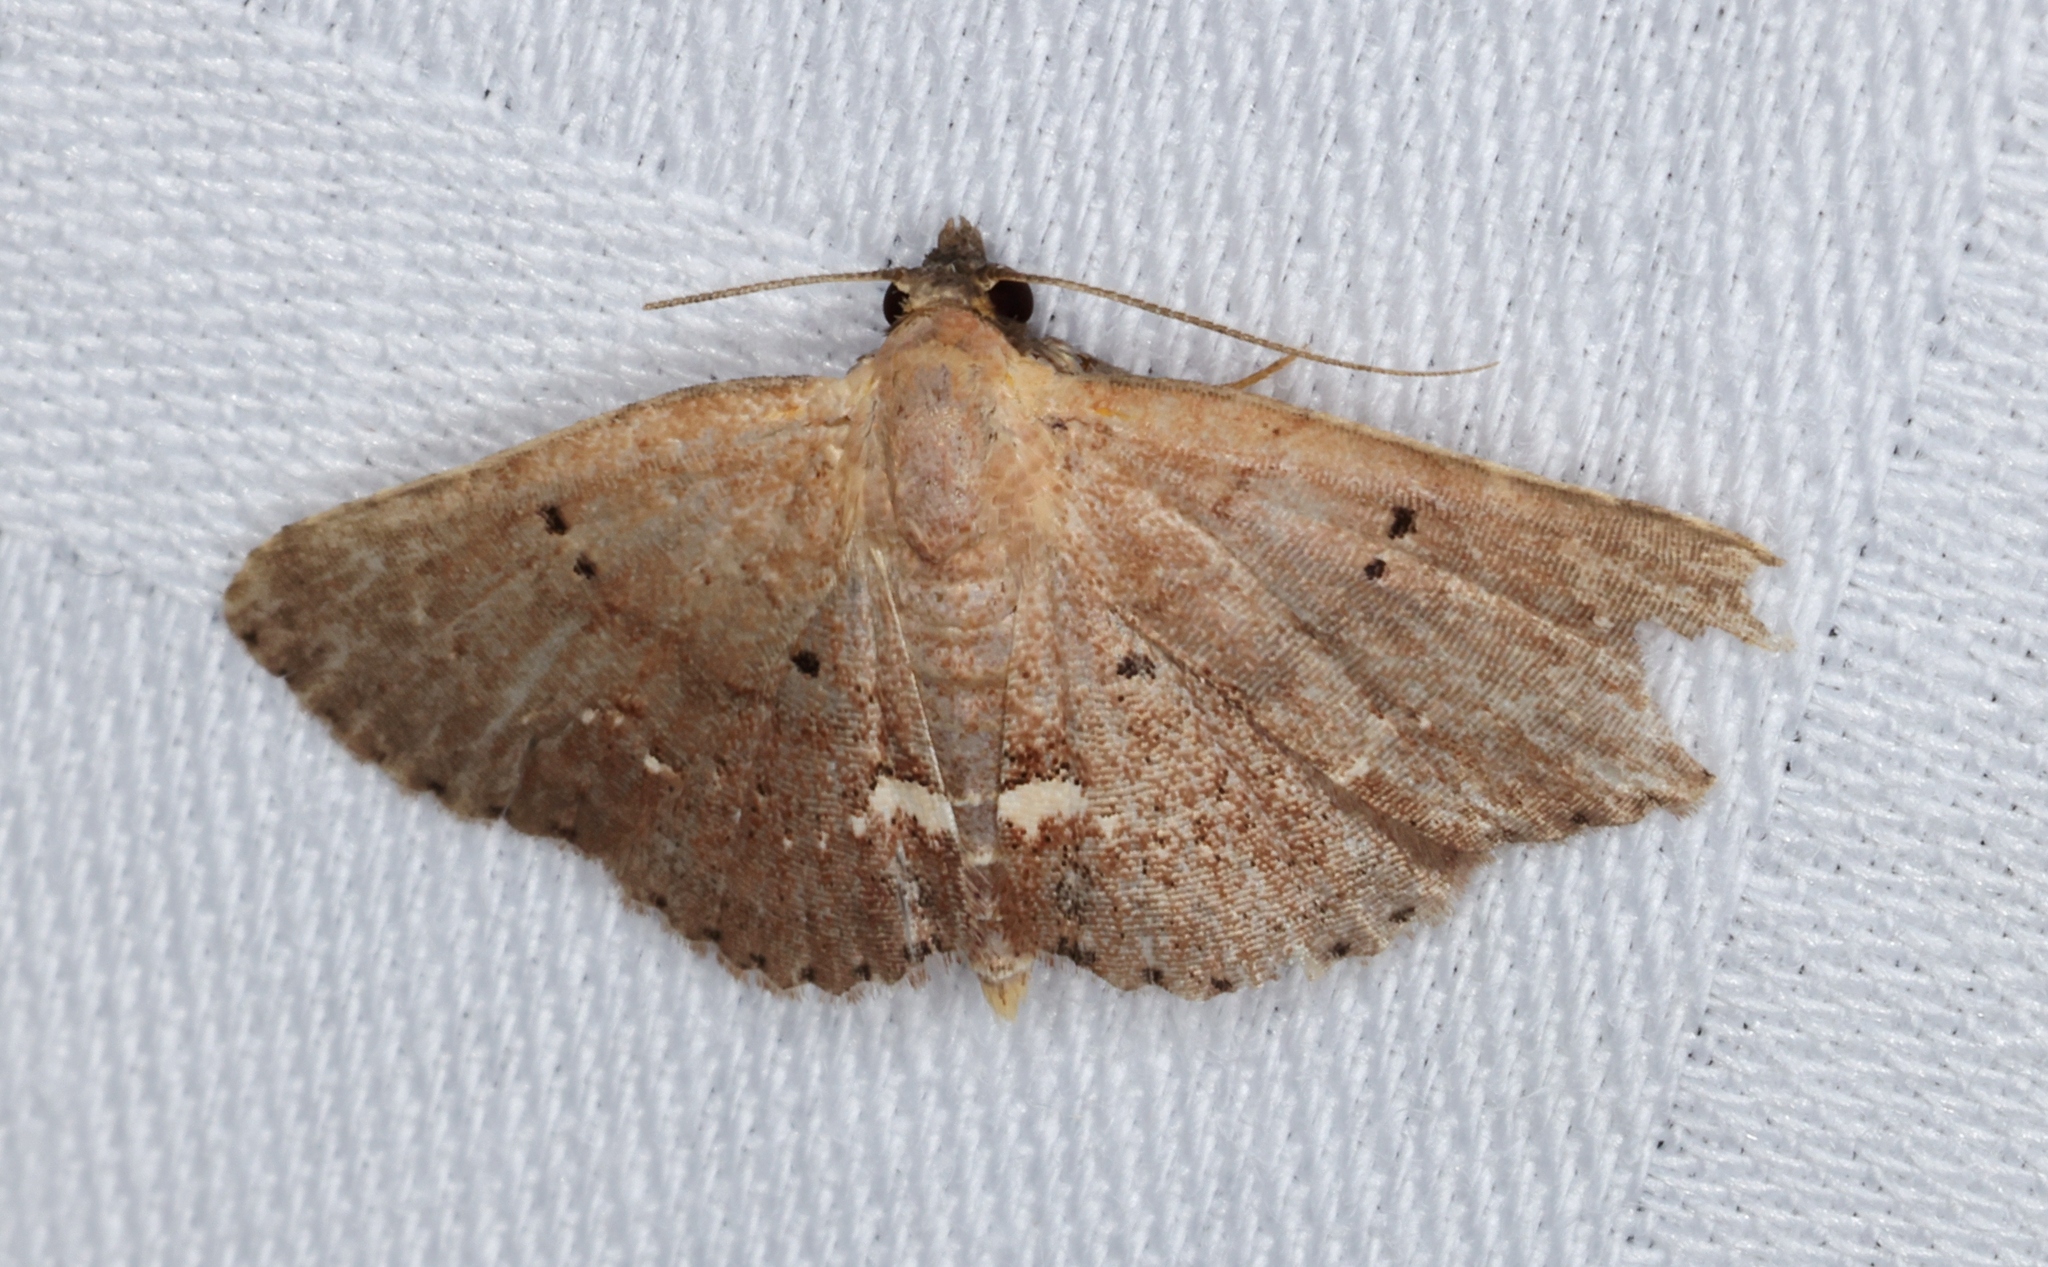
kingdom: Animalia
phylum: Arthropoda
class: Insecta
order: Lepidoptera
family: Erebidae
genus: Nechesia
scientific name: Nechesia albotentata
